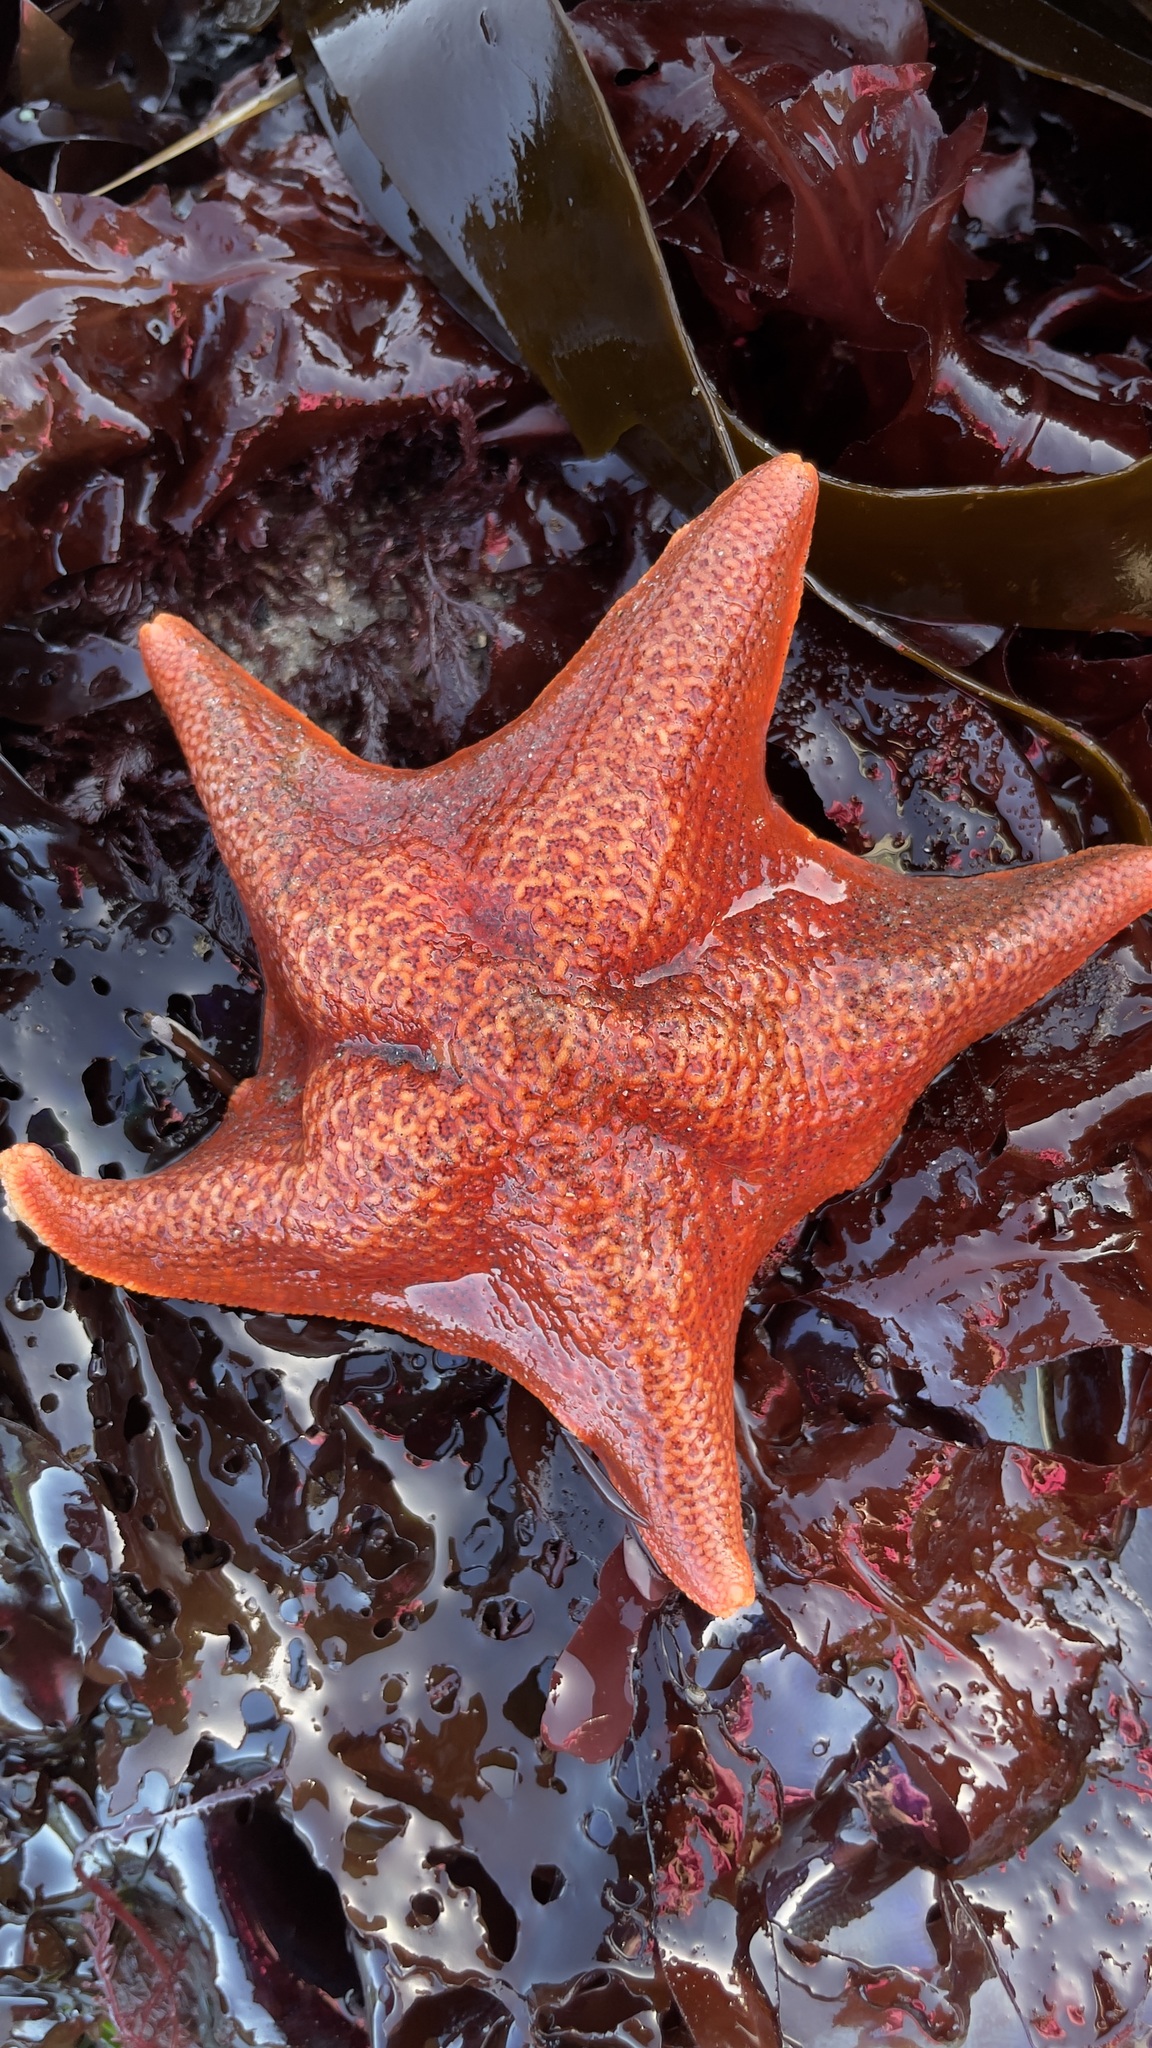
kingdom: Animalia
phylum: Echinodermata
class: Asteroidea
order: Valvatida
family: Asterinidae
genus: Patiria
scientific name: Patiria miniata
